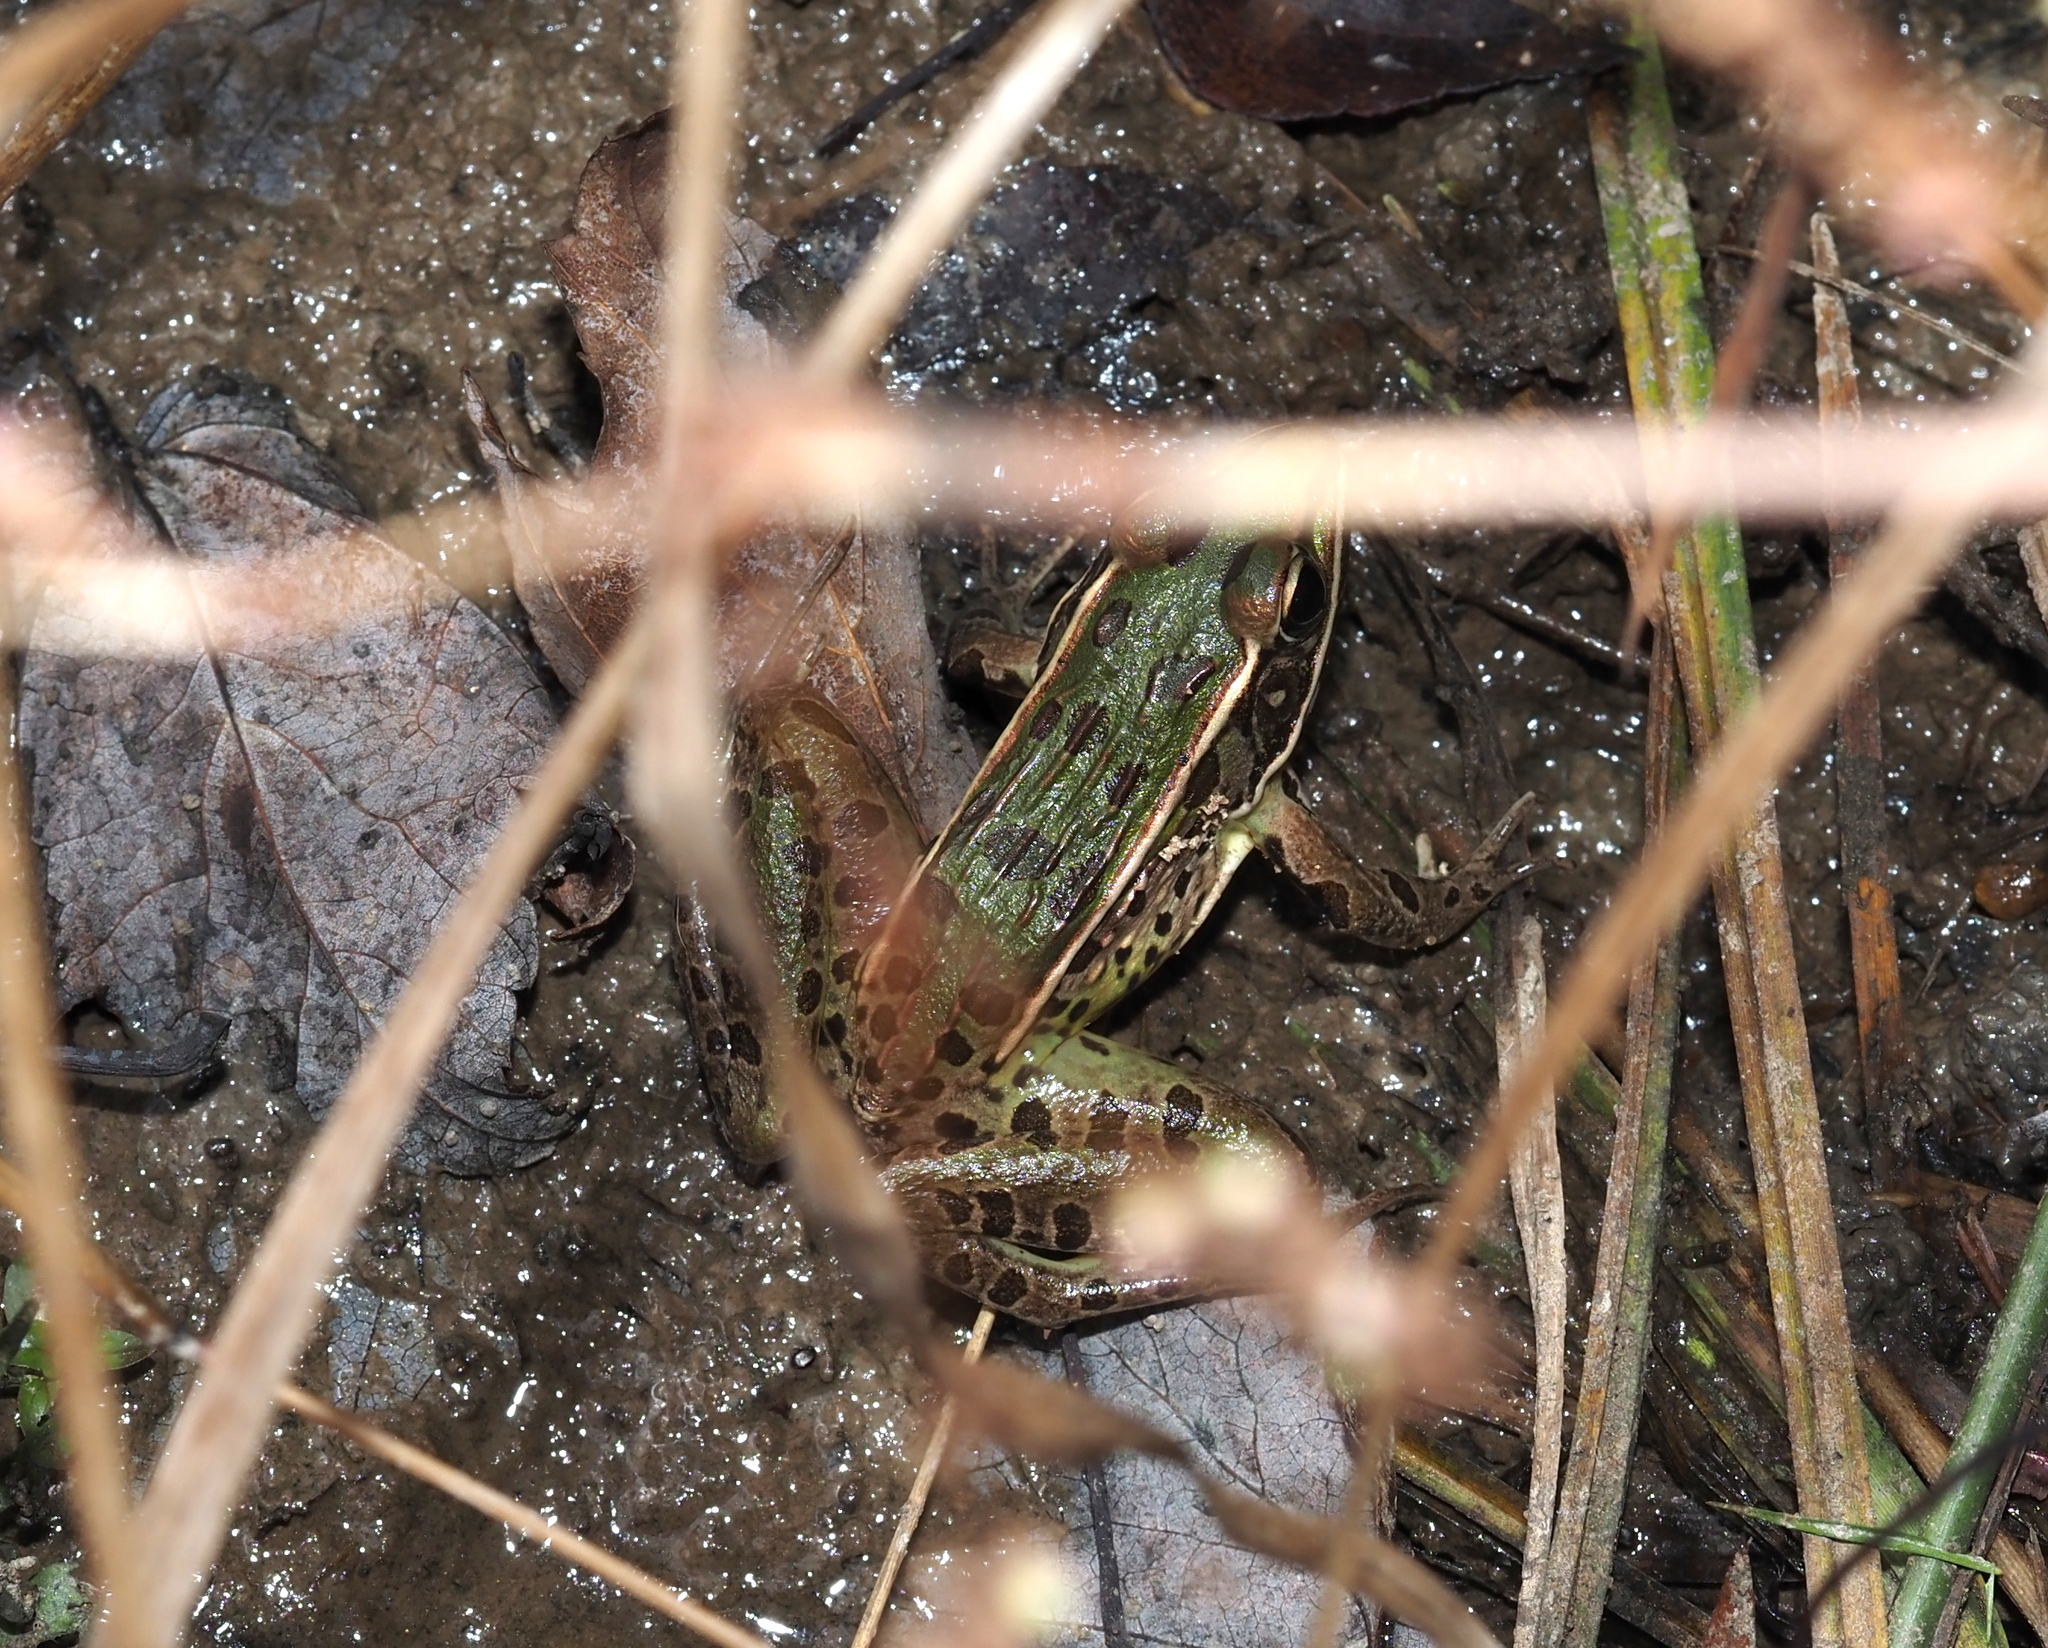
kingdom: Animalia
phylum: Chordata
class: Amphibia
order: Anura
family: Ranidae
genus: Lithobates
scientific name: Lithobates sphenocephalus
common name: Southern leopard frog
